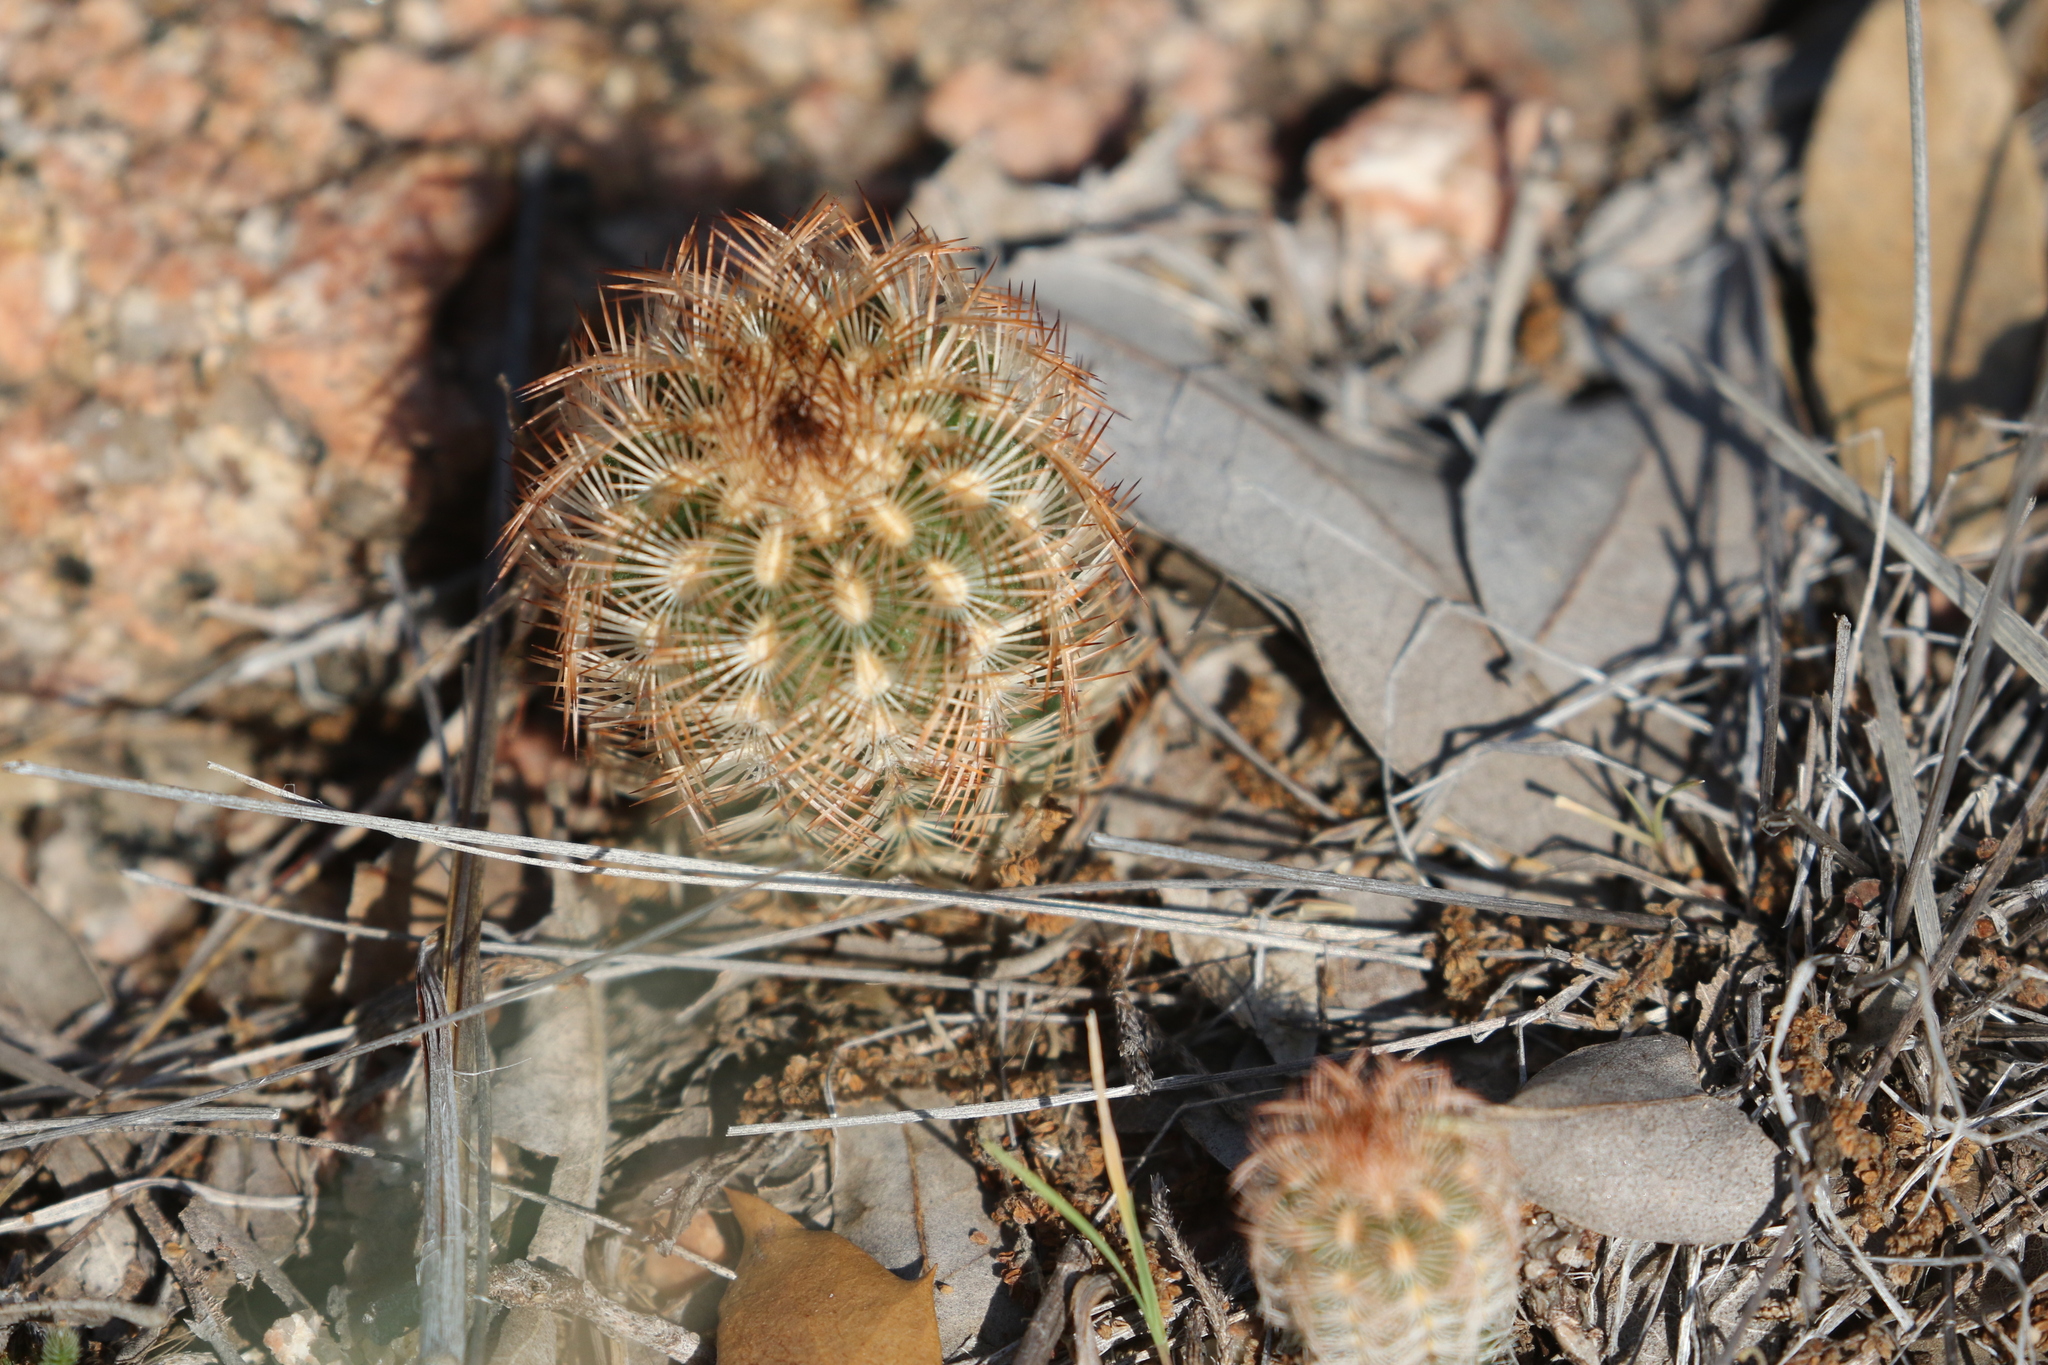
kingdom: Plantae
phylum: Tracheophyta
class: Magnoliopsida
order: Caryophyllales
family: Cactaceae
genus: Echinocereus
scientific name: Echinocereus reichenbachii
